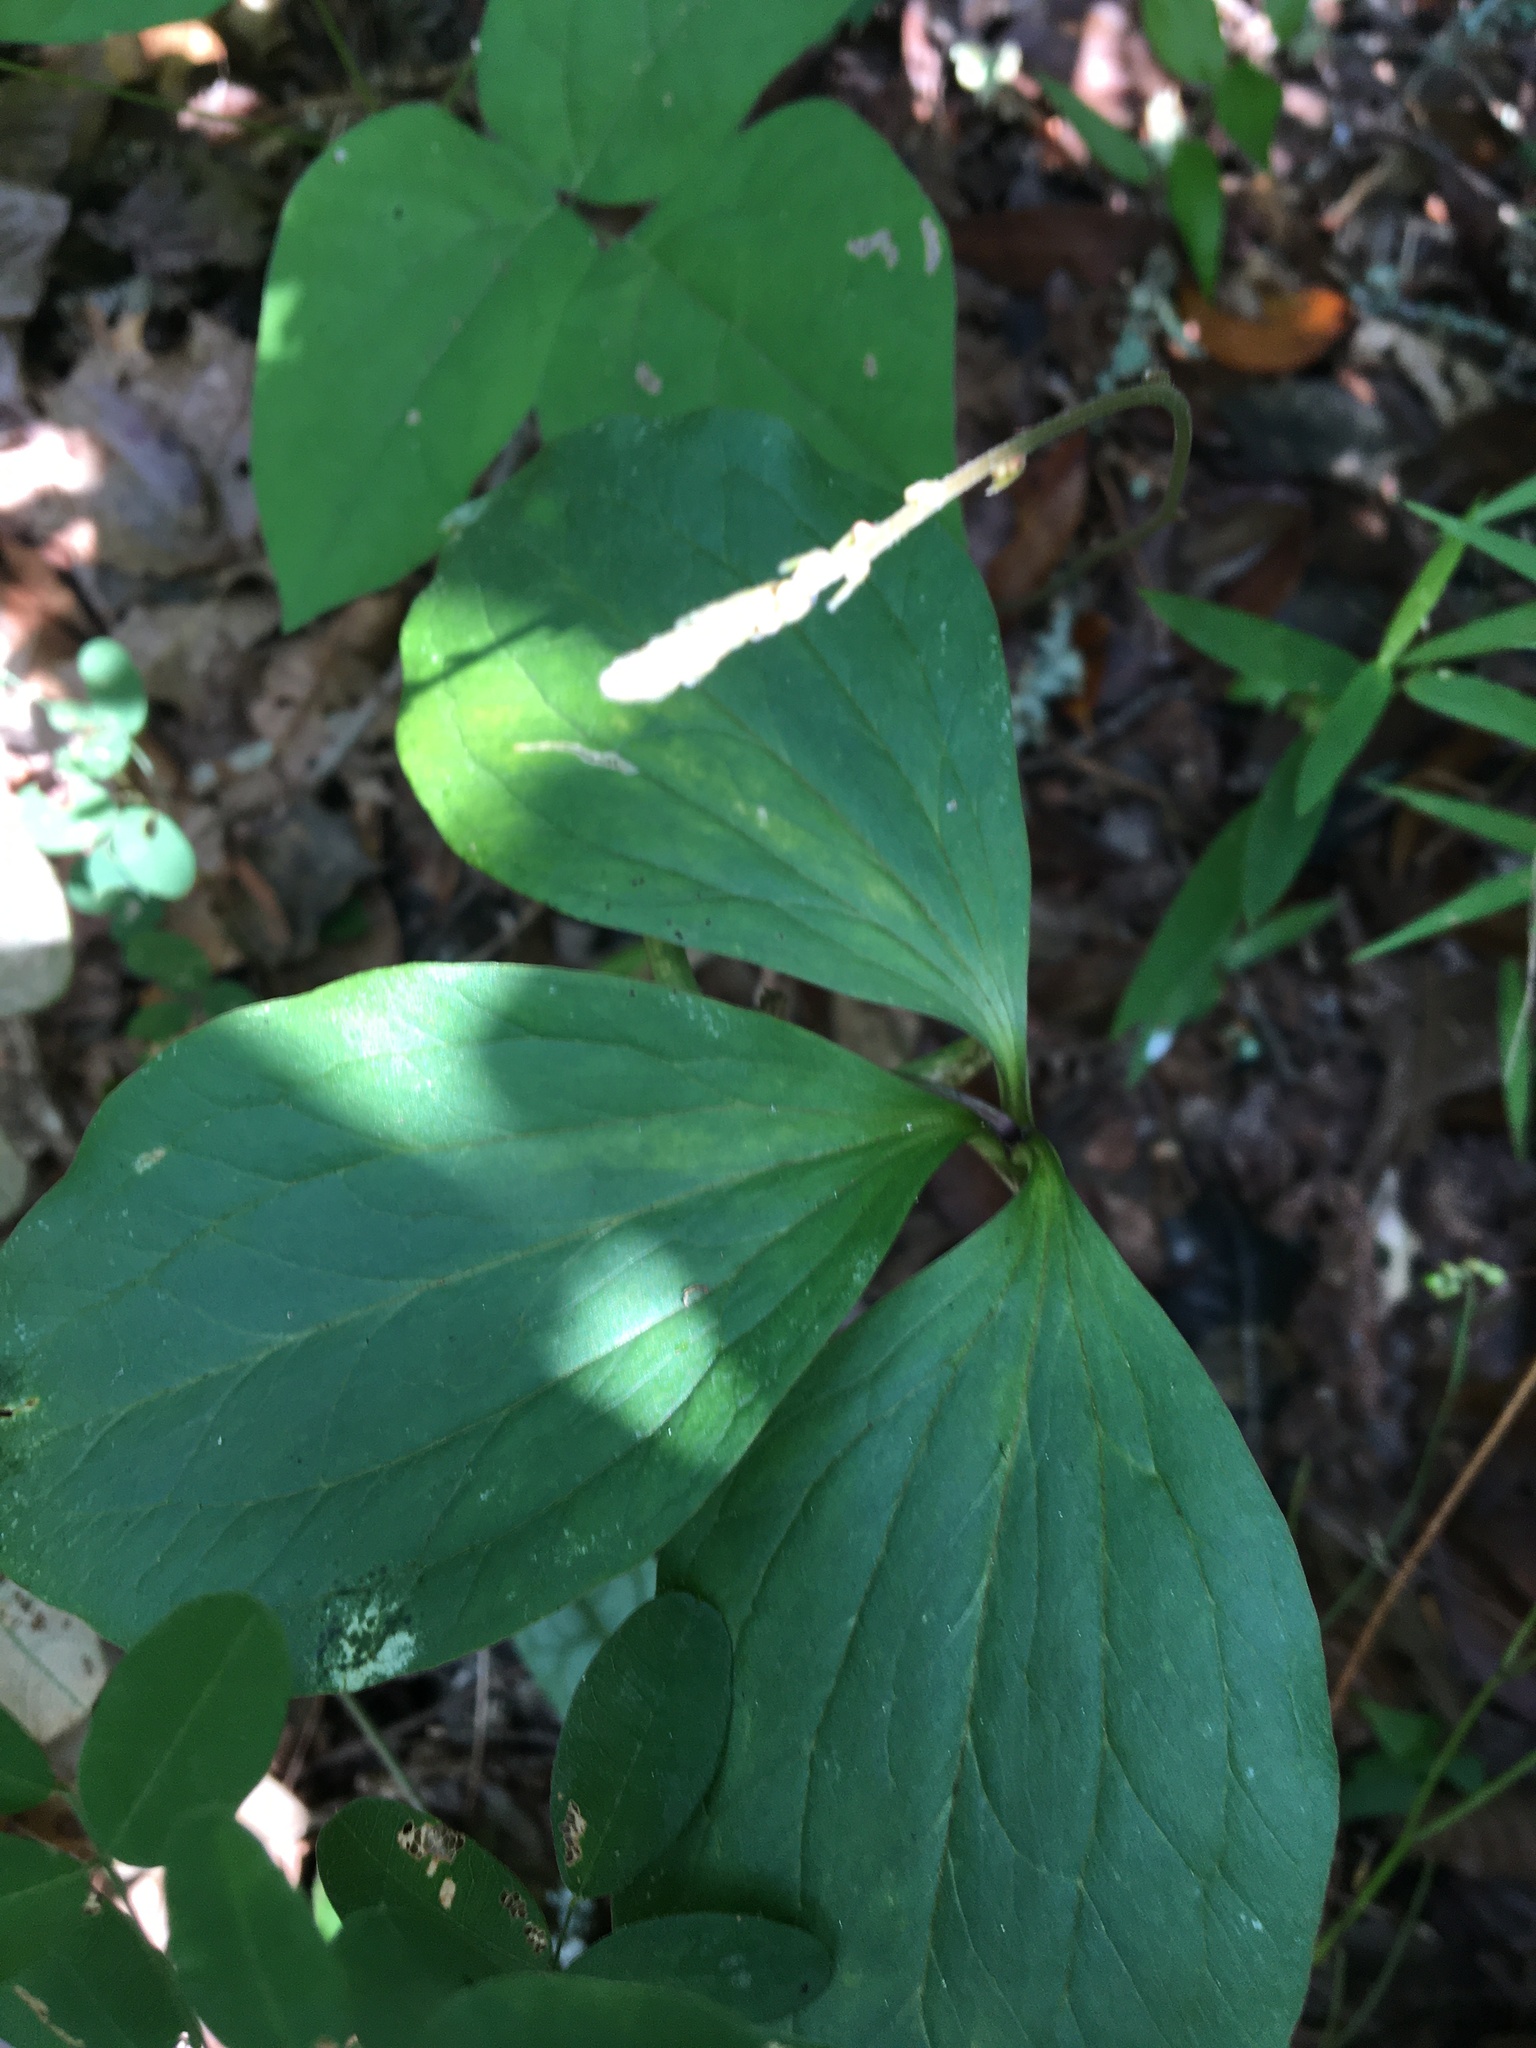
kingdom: Plantae
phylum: Tracheophyta
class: Liliopsida
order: Liliales
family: Melanthiaceae
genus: Trillium
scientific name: Trillium catesbaei
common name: Bashful trillium
